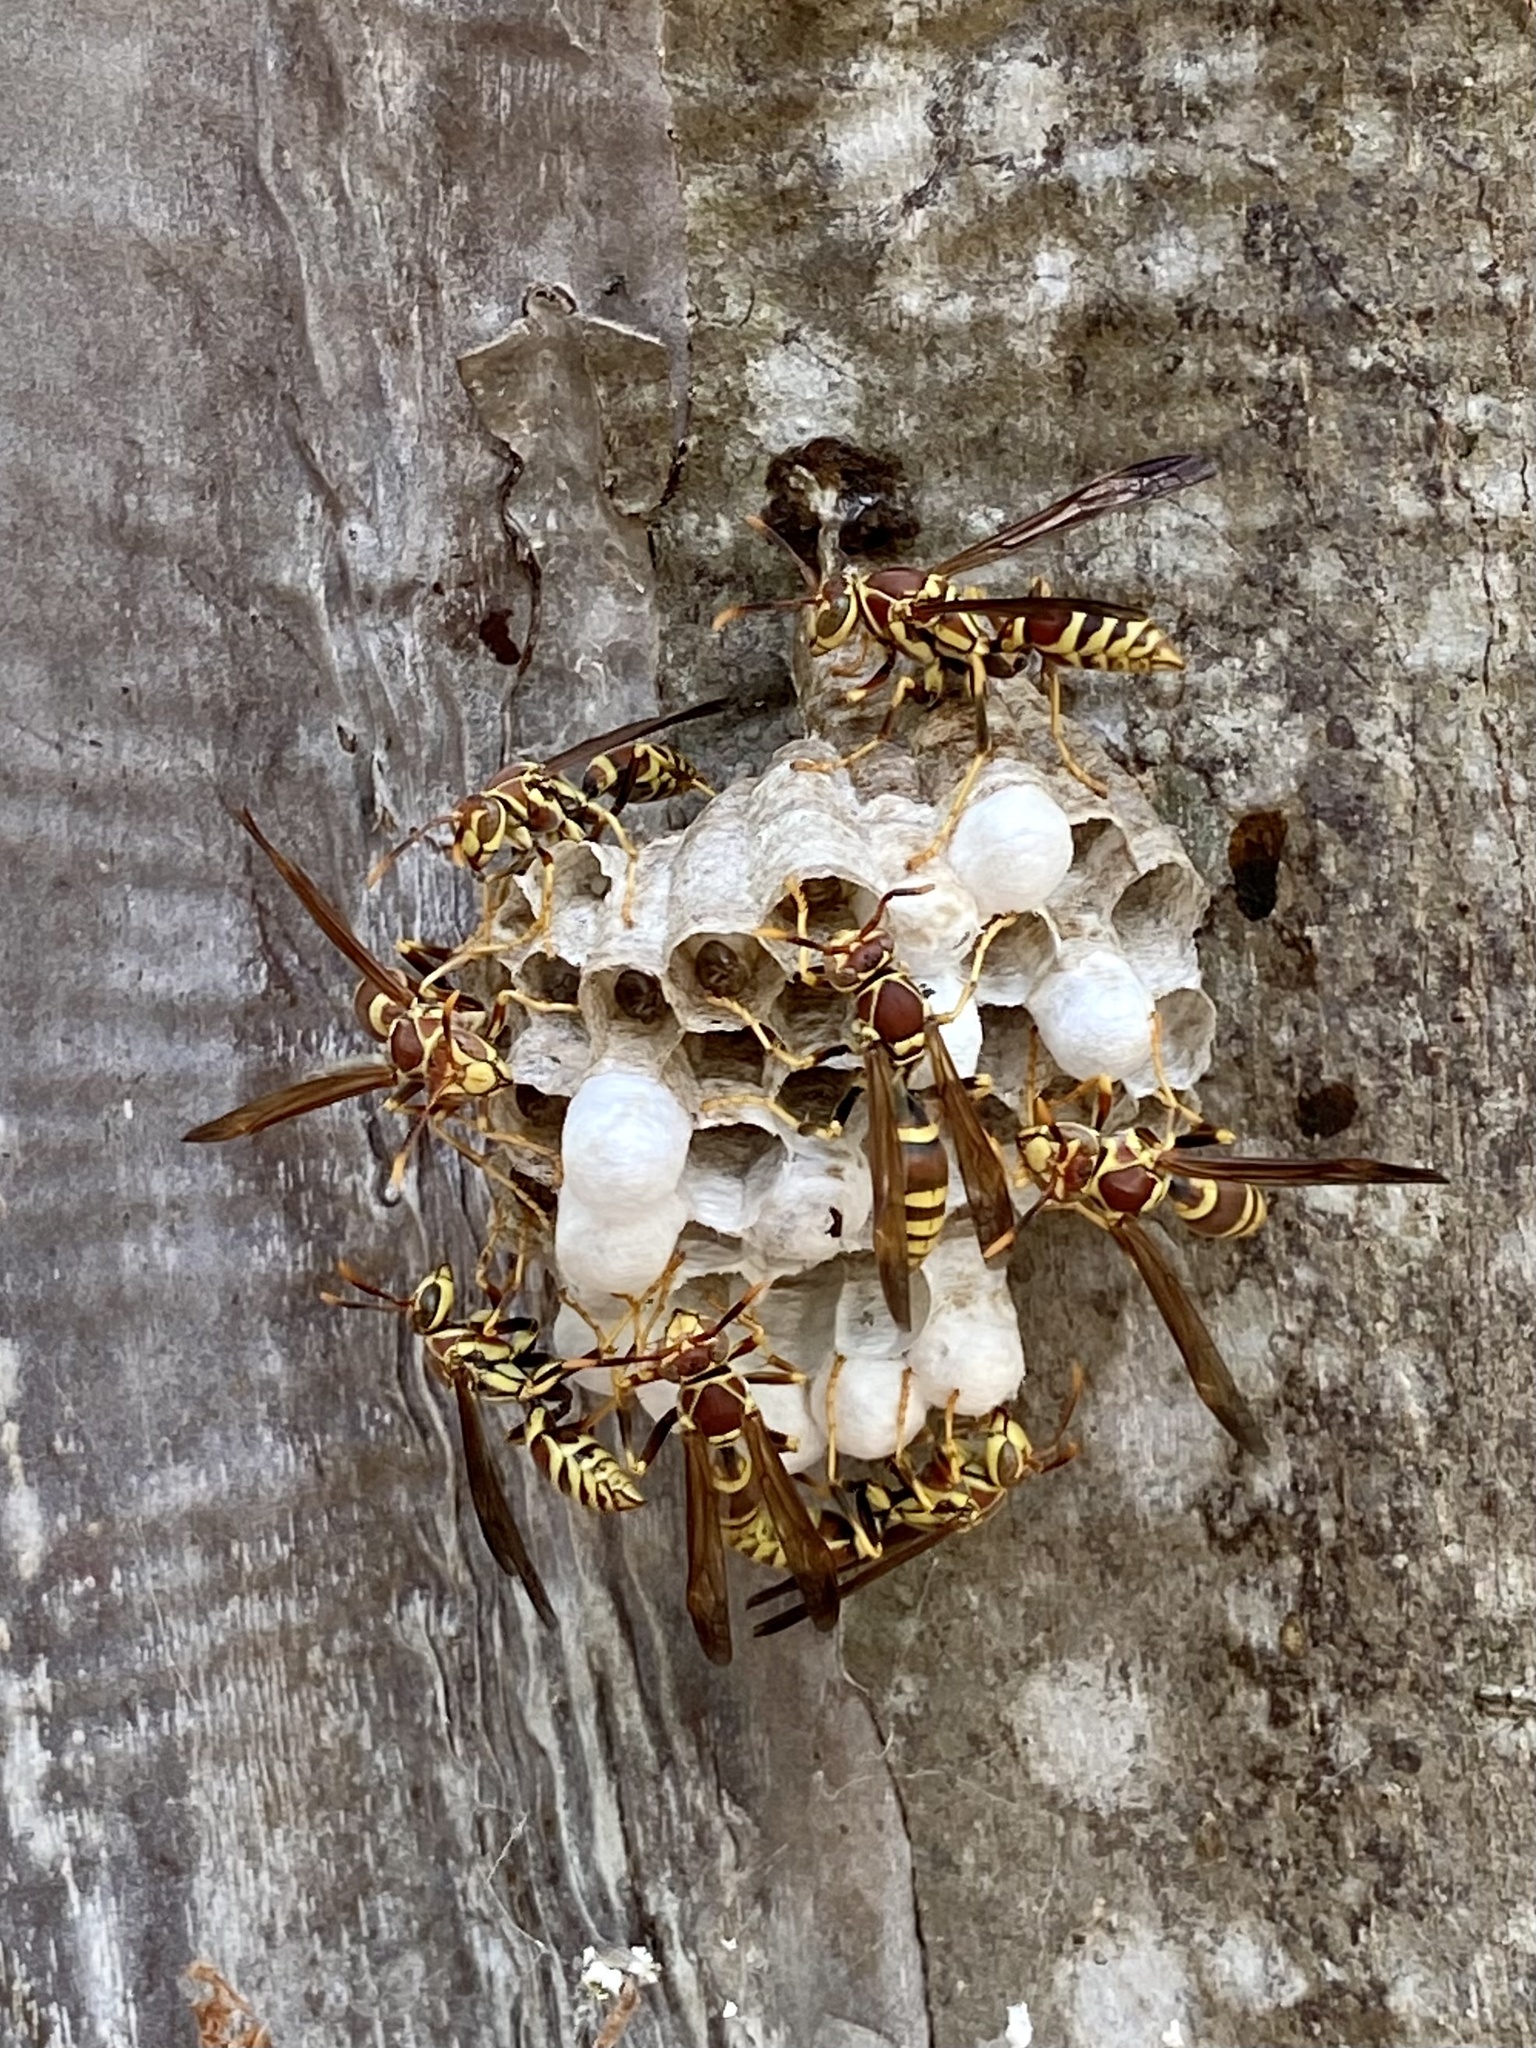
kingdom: Animalia
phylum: Arthropoda
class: Insecta
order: Hymenoptera
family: Eumenidae
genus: Polistes
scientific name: Polistes exclamans
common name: Paper wasp
